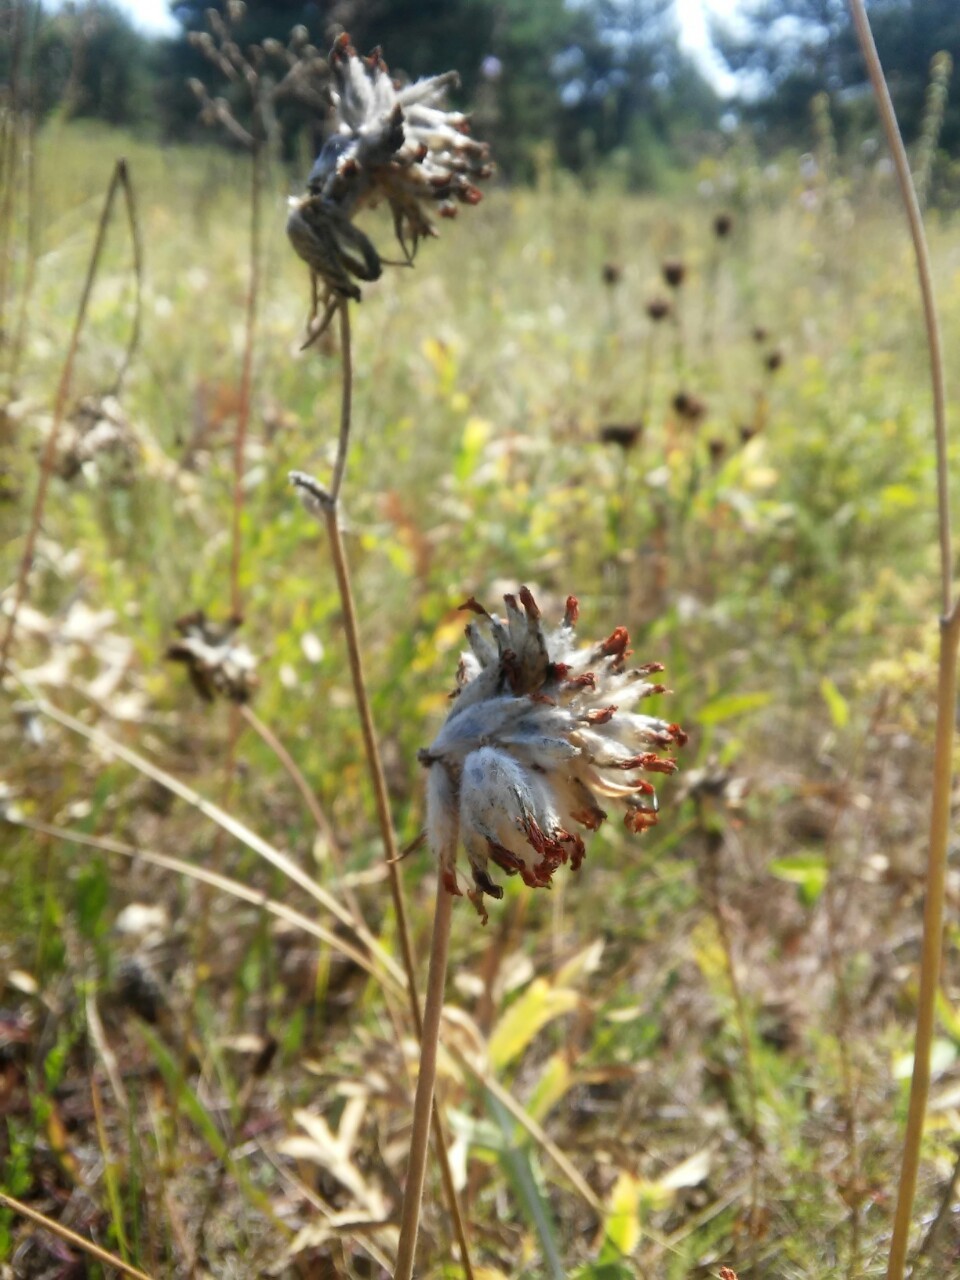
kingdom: Plantae
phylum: Tracheophyta
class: Magnoliopsida
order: Fabales
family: Fabaceae
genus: Anthyllis
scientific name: Anthyllis vulneraria
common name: Kidney vetch
